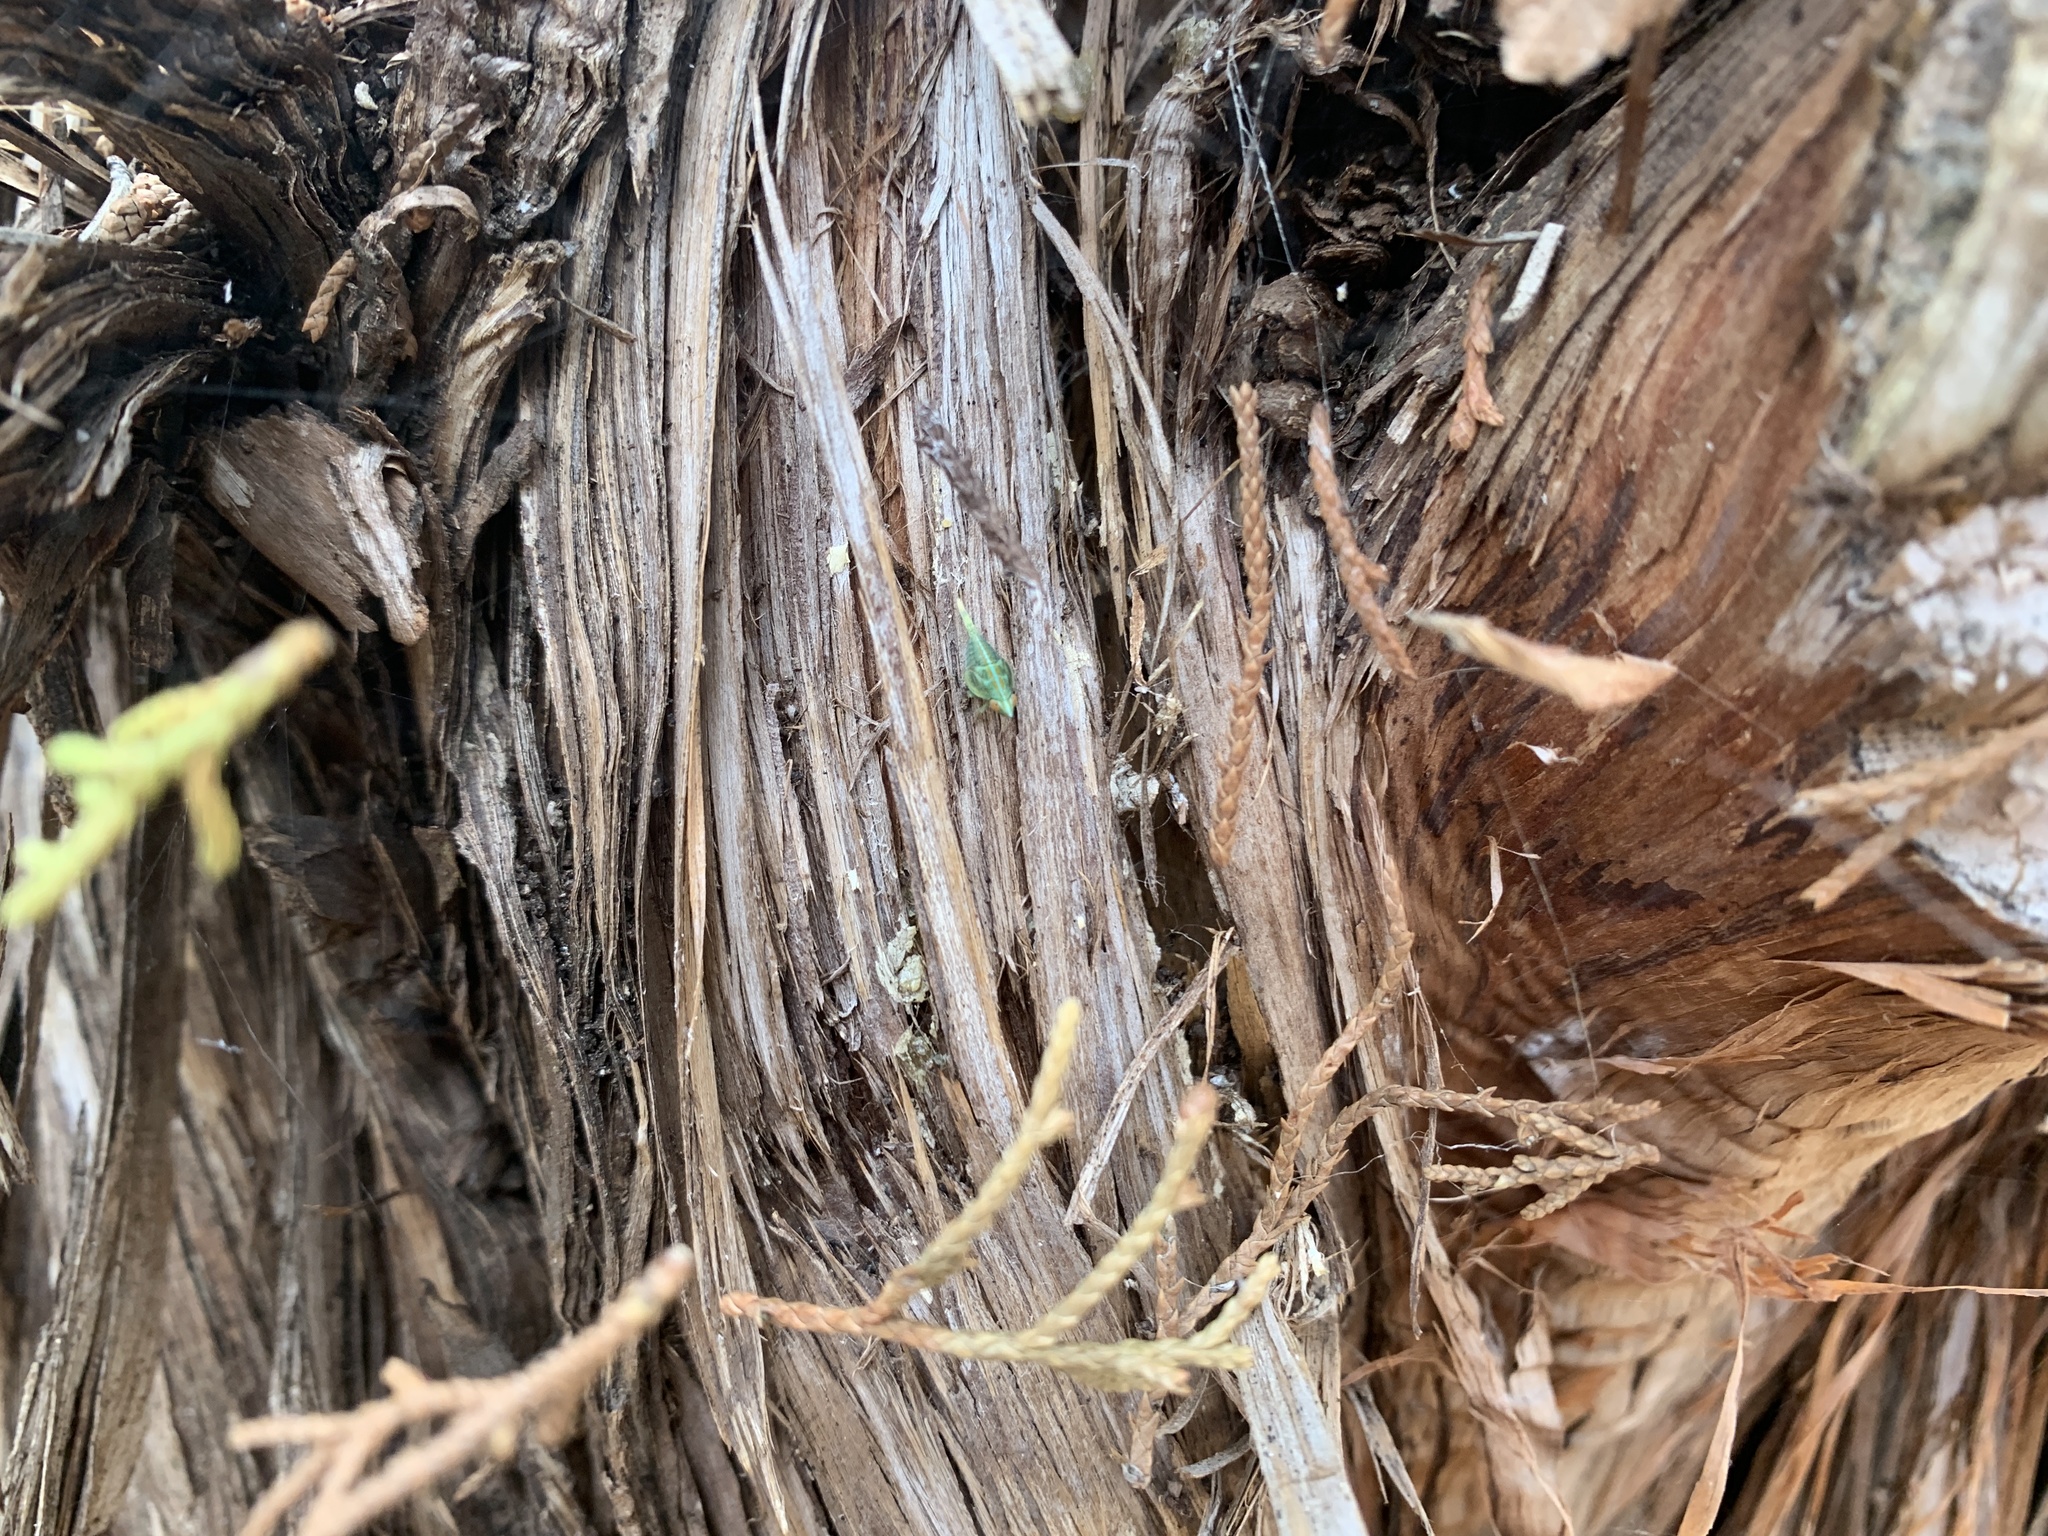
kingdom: Animalia
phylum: Arthropoda
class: Insecta
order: Hemiptera
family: Issidae
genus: Fowlerium
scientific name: Fowlerium acutum
